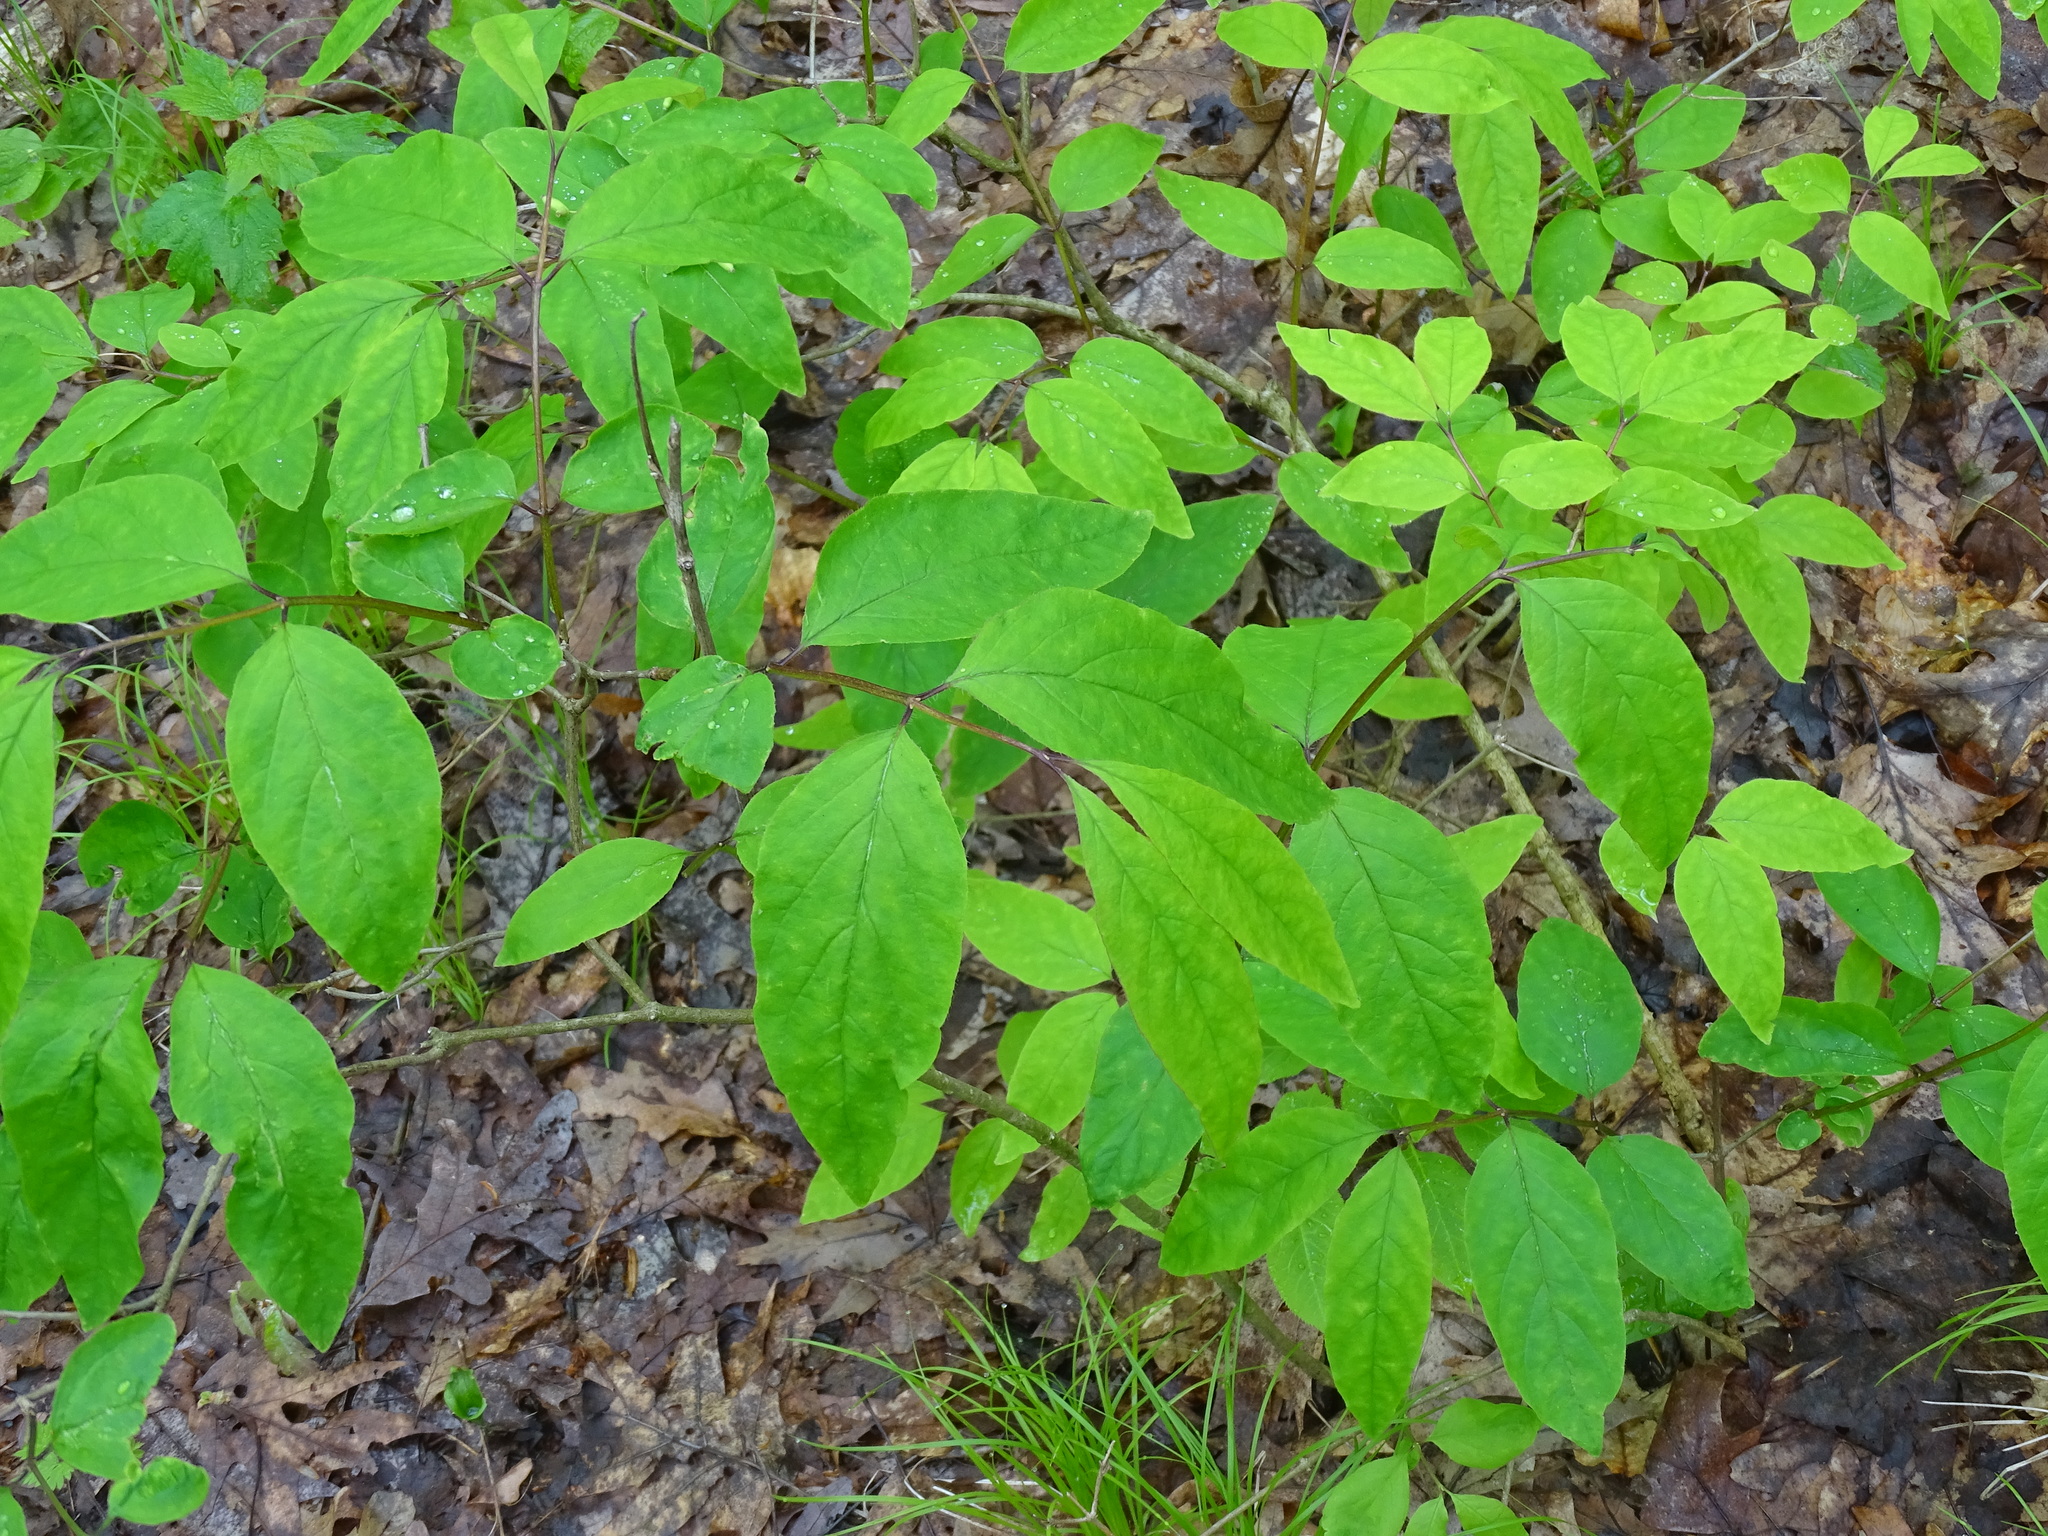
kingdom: Plantae
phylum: Tracheophyta
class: Magnoliopsida
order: Dipsacales
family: Caprifoliaceae
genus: Lonicera
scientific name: Lonicera canadensis
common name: American fly-honeysuckle
